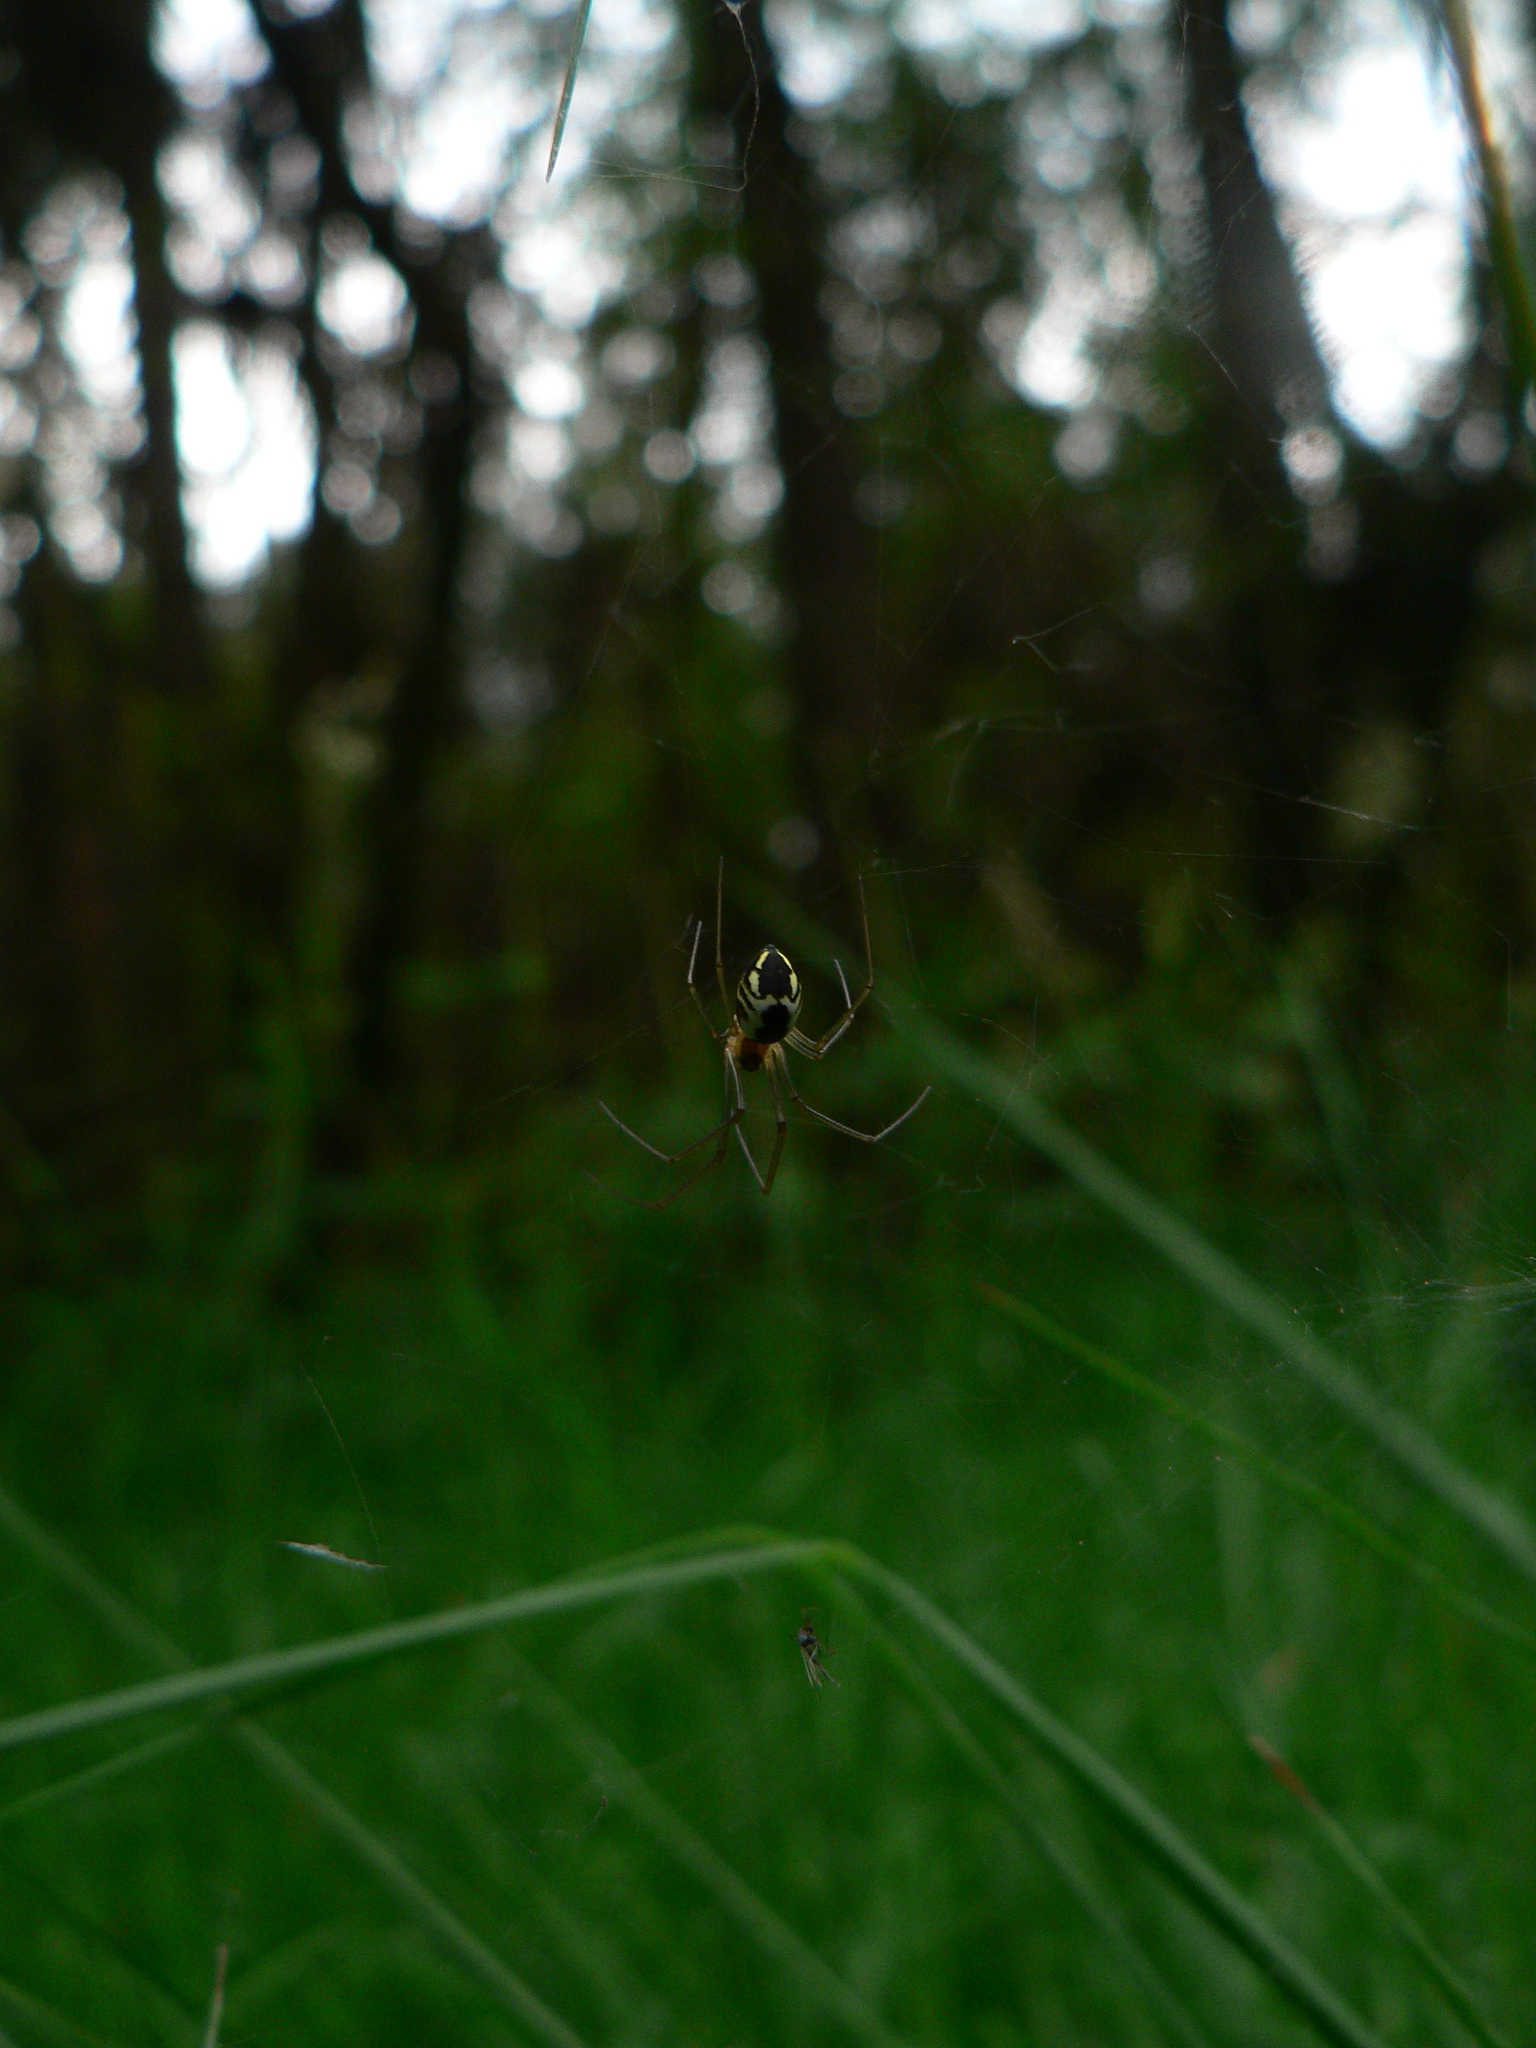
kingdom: Animalia
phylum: Arthropoda
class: Arachnida
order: Araneae
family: Linyphiidae
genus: Neriene
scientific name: Neriene radiata
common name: Filmy dome spider
